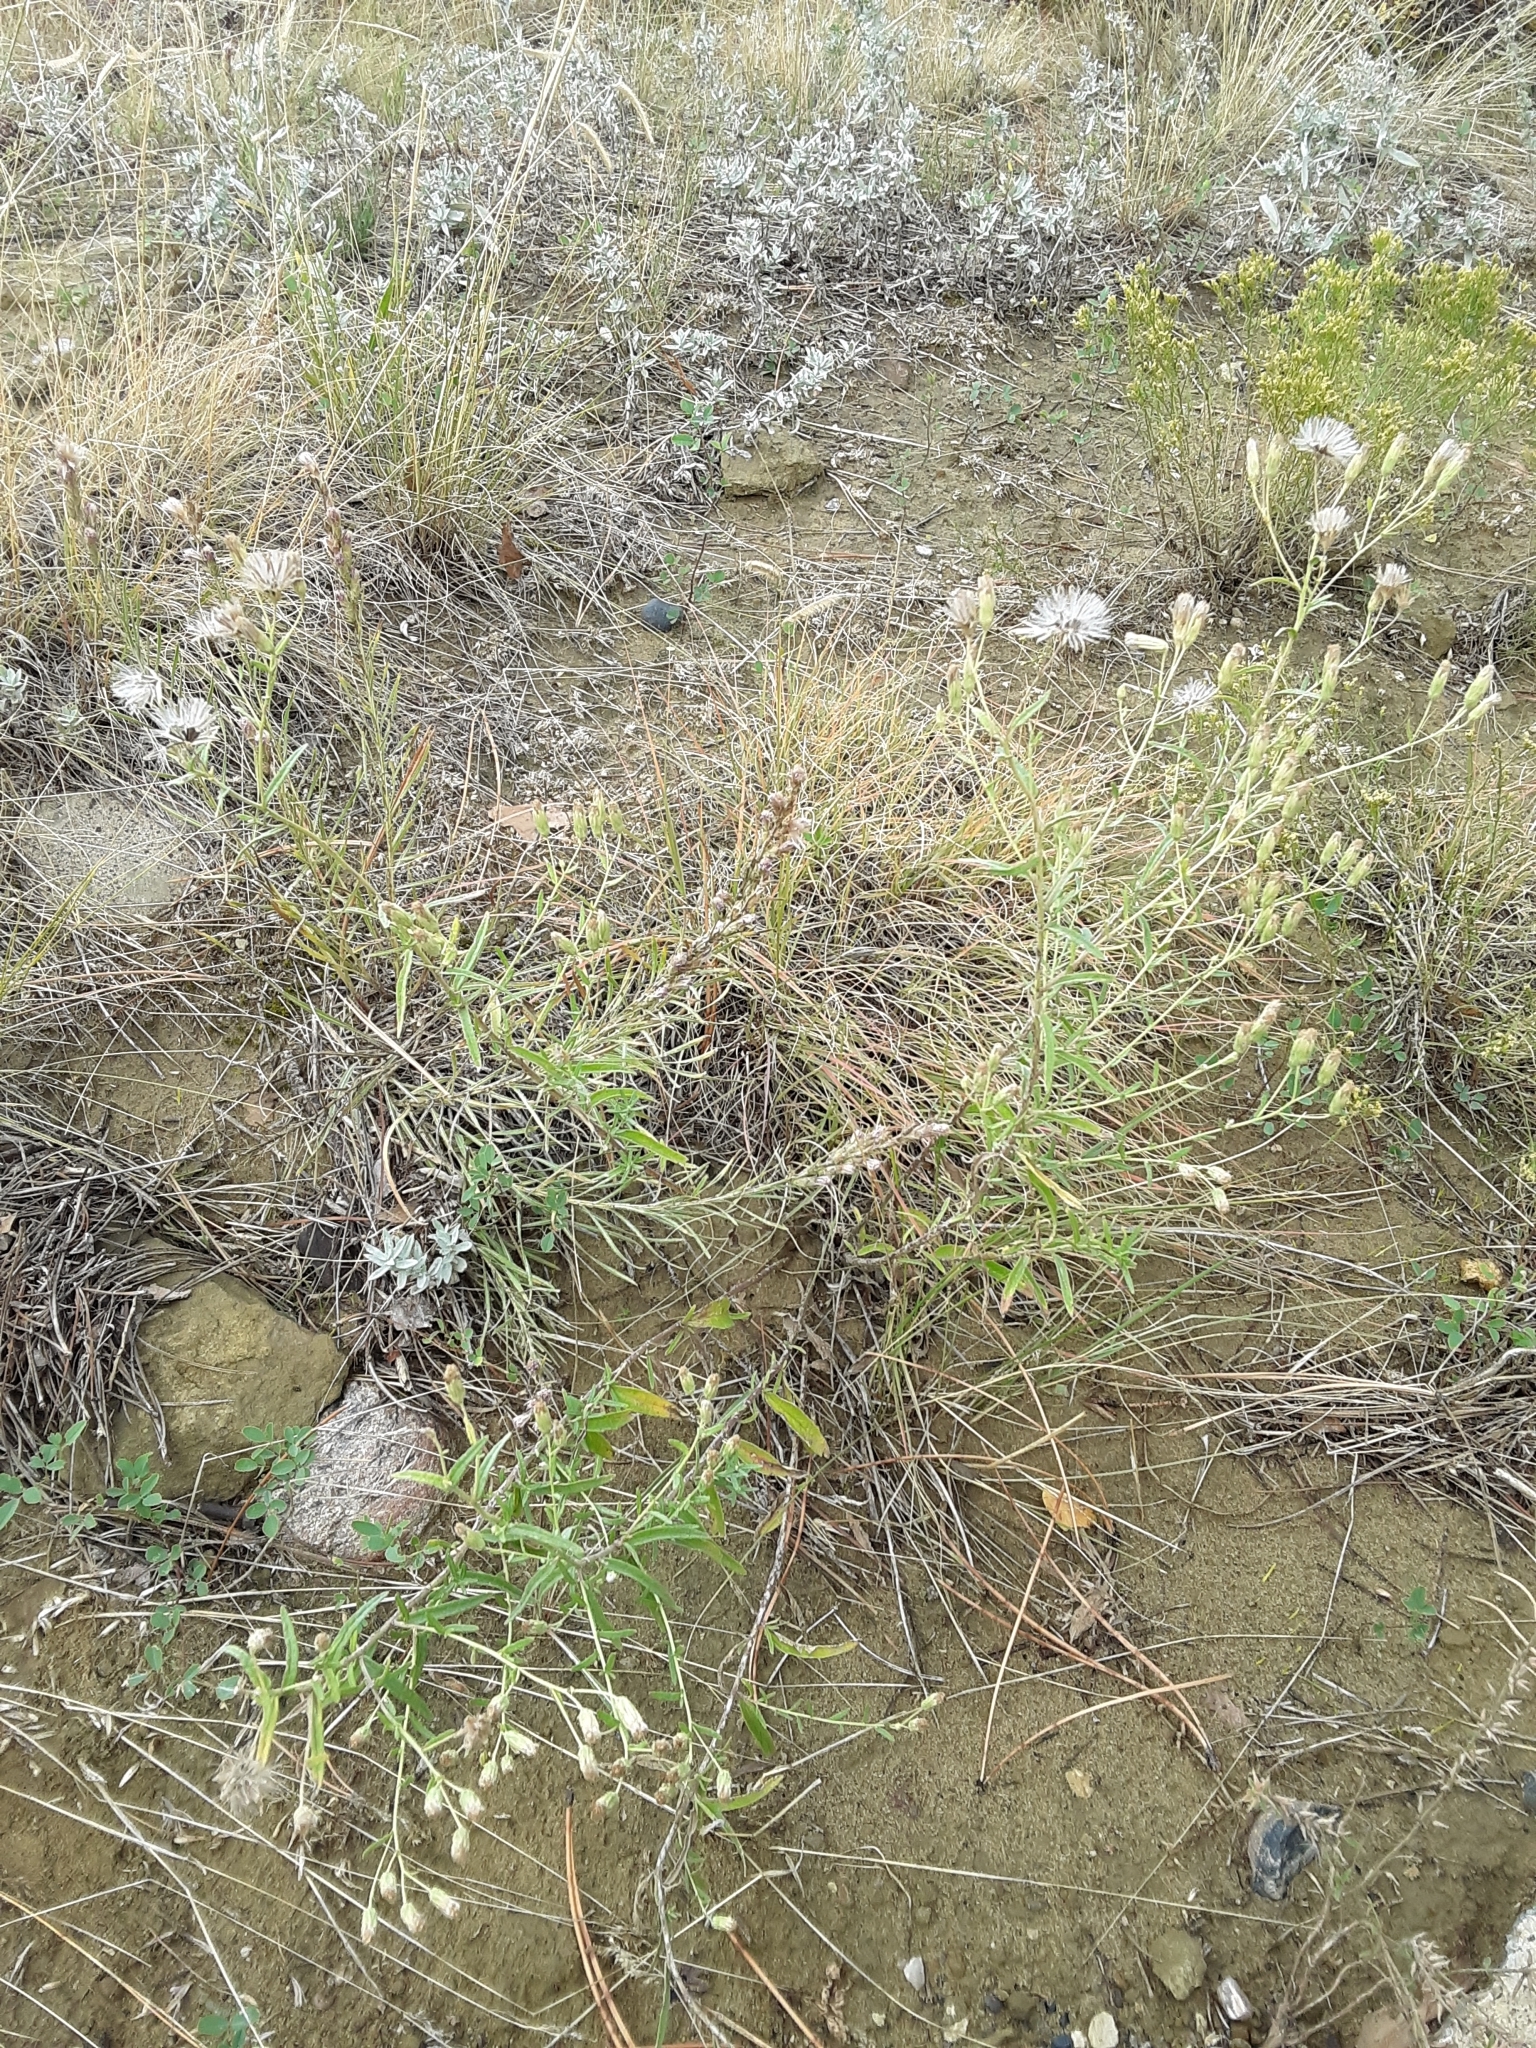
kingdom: Plantae
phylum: Tracheophyta
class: Magnoliopsida
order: Asterales
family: Asteraceae
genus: Brickellia
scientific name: Brickellia eupatorioides
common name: False boneset
